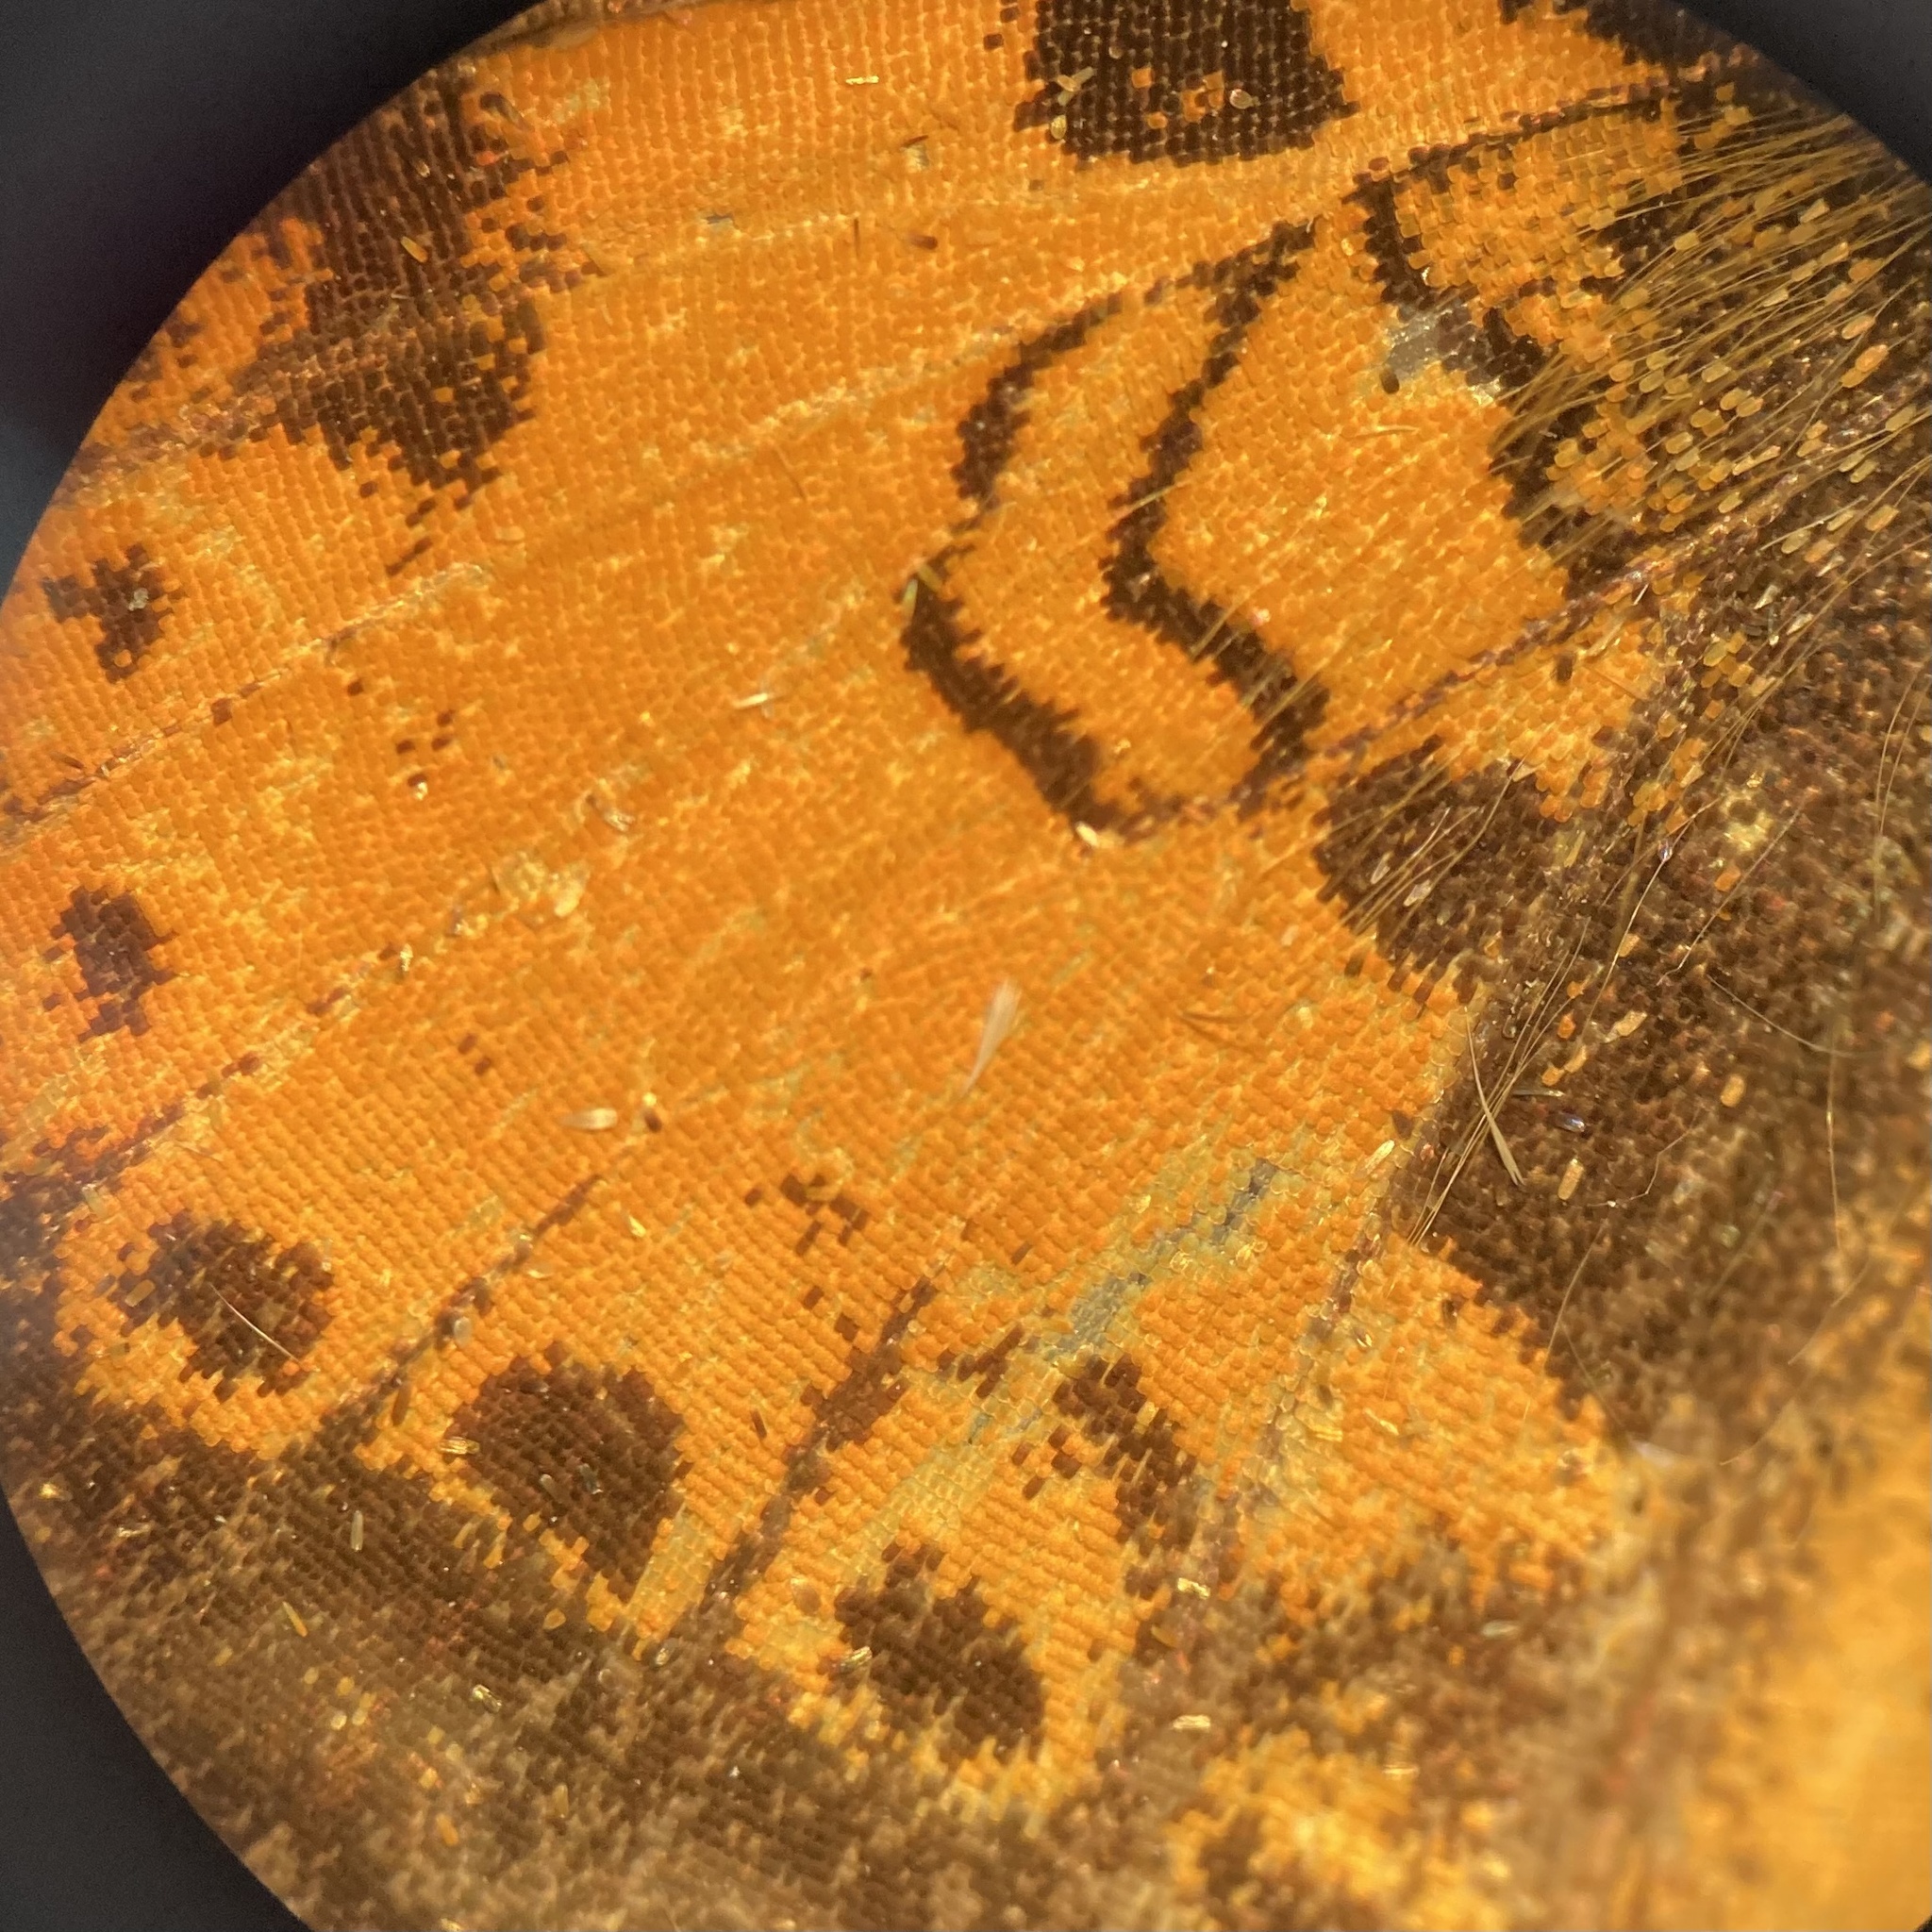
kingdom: Animalia
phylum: Arthropoda
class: Insecta
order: Lepidoptera
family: Nymphalidae
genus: Phyciodes
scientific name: Phyciodes tharos
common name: Pearl crescent
